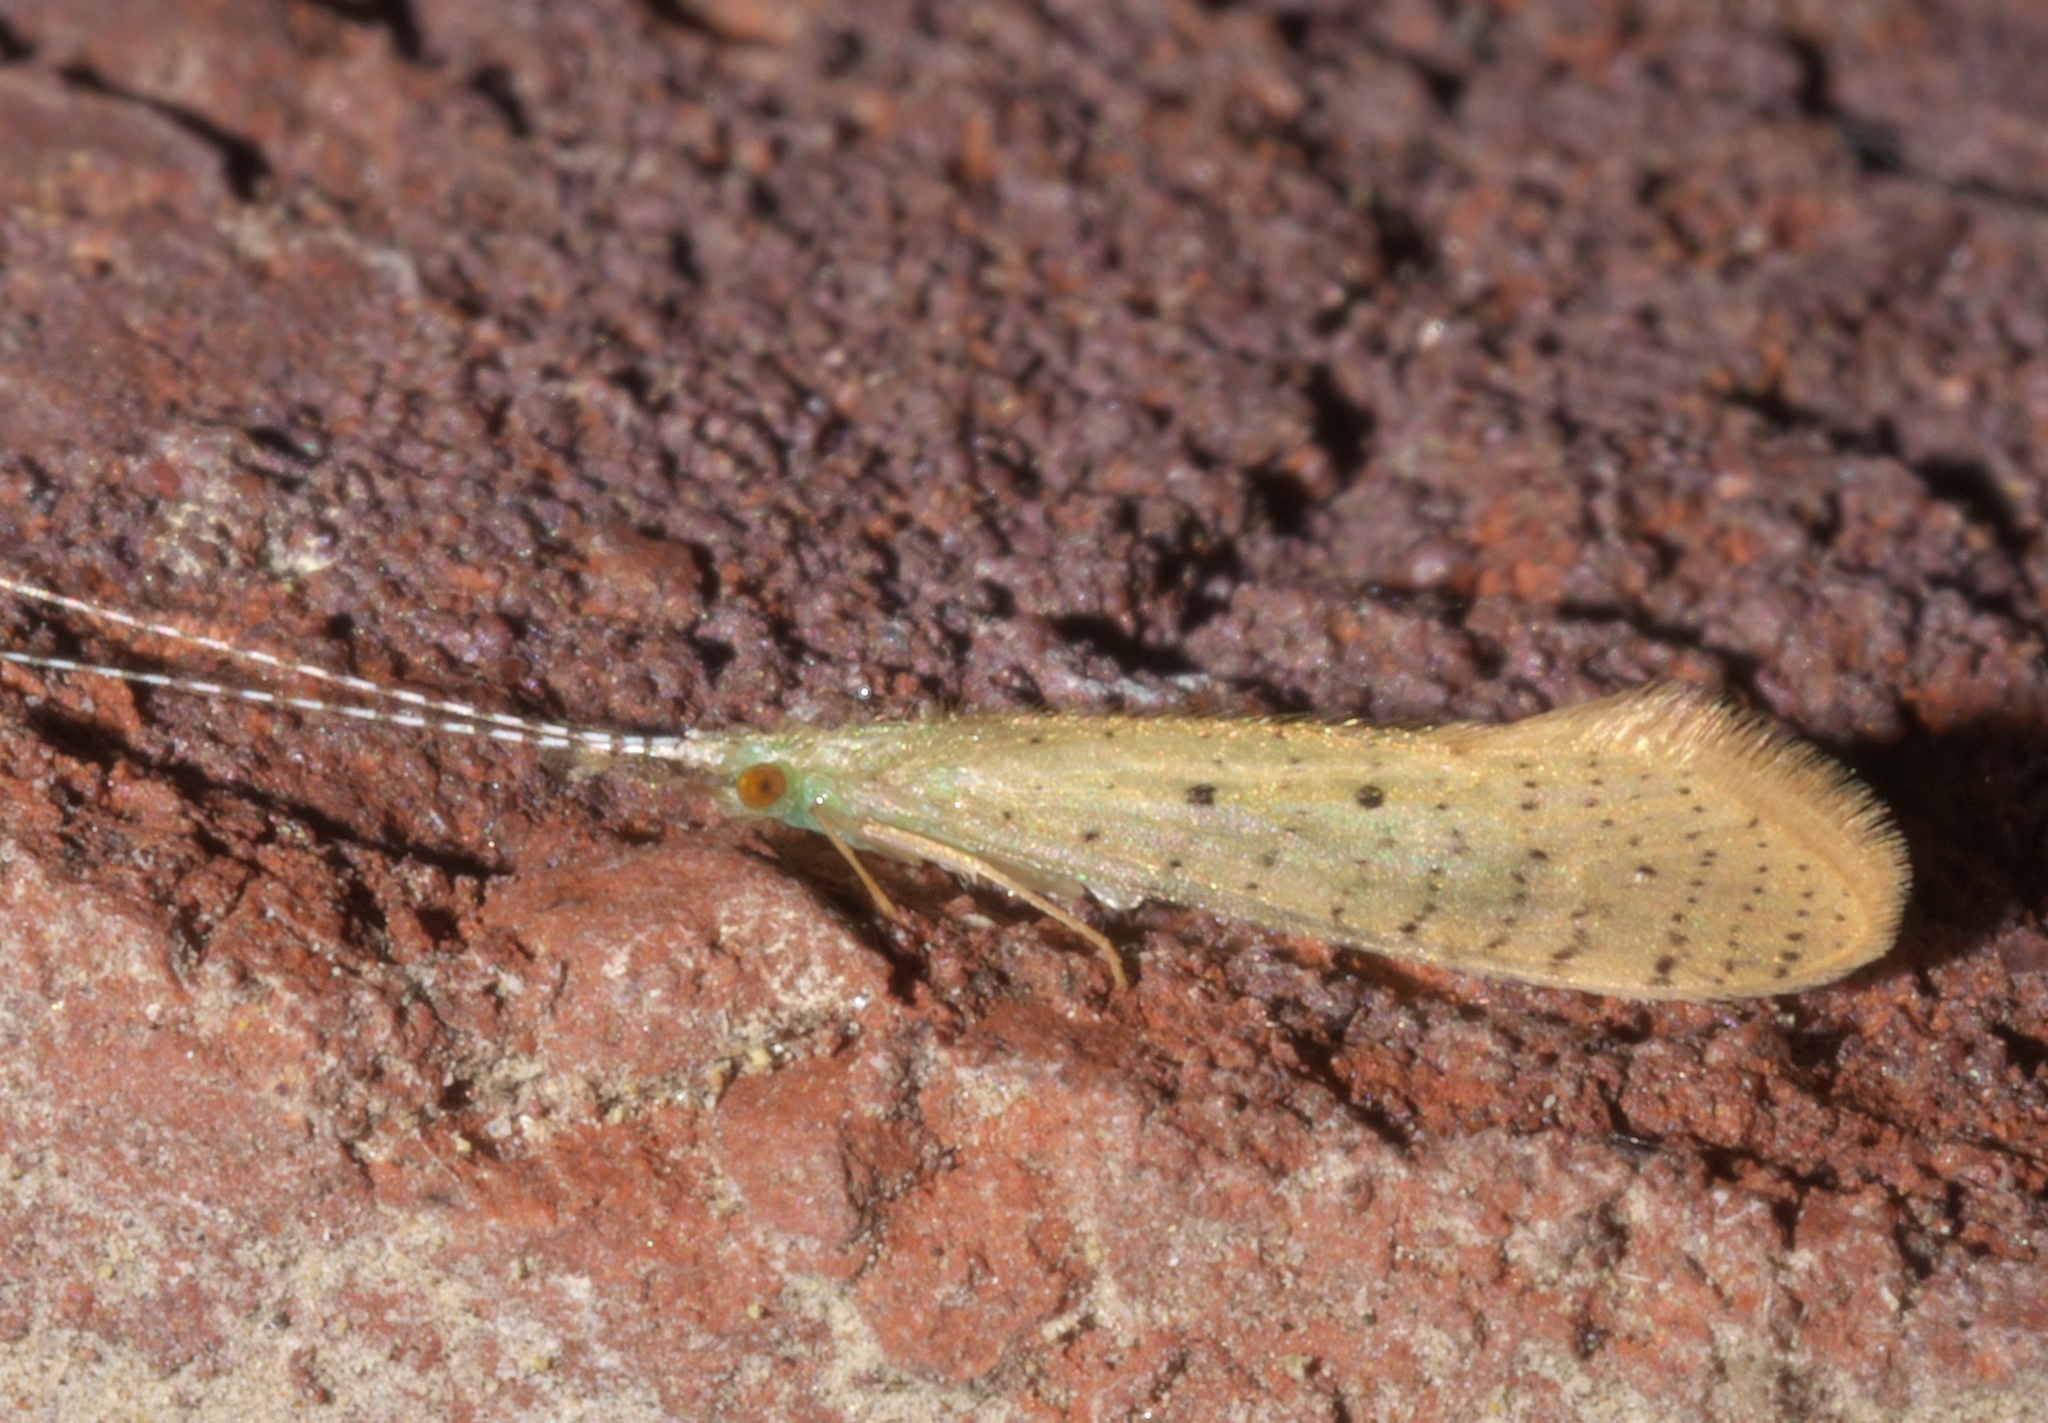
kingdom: Animalia
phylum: Arthropoda
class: Insecta
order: Trichoptera
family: Leptoceridae
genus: Nectopsyche
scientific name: Nectopsyche pavida
